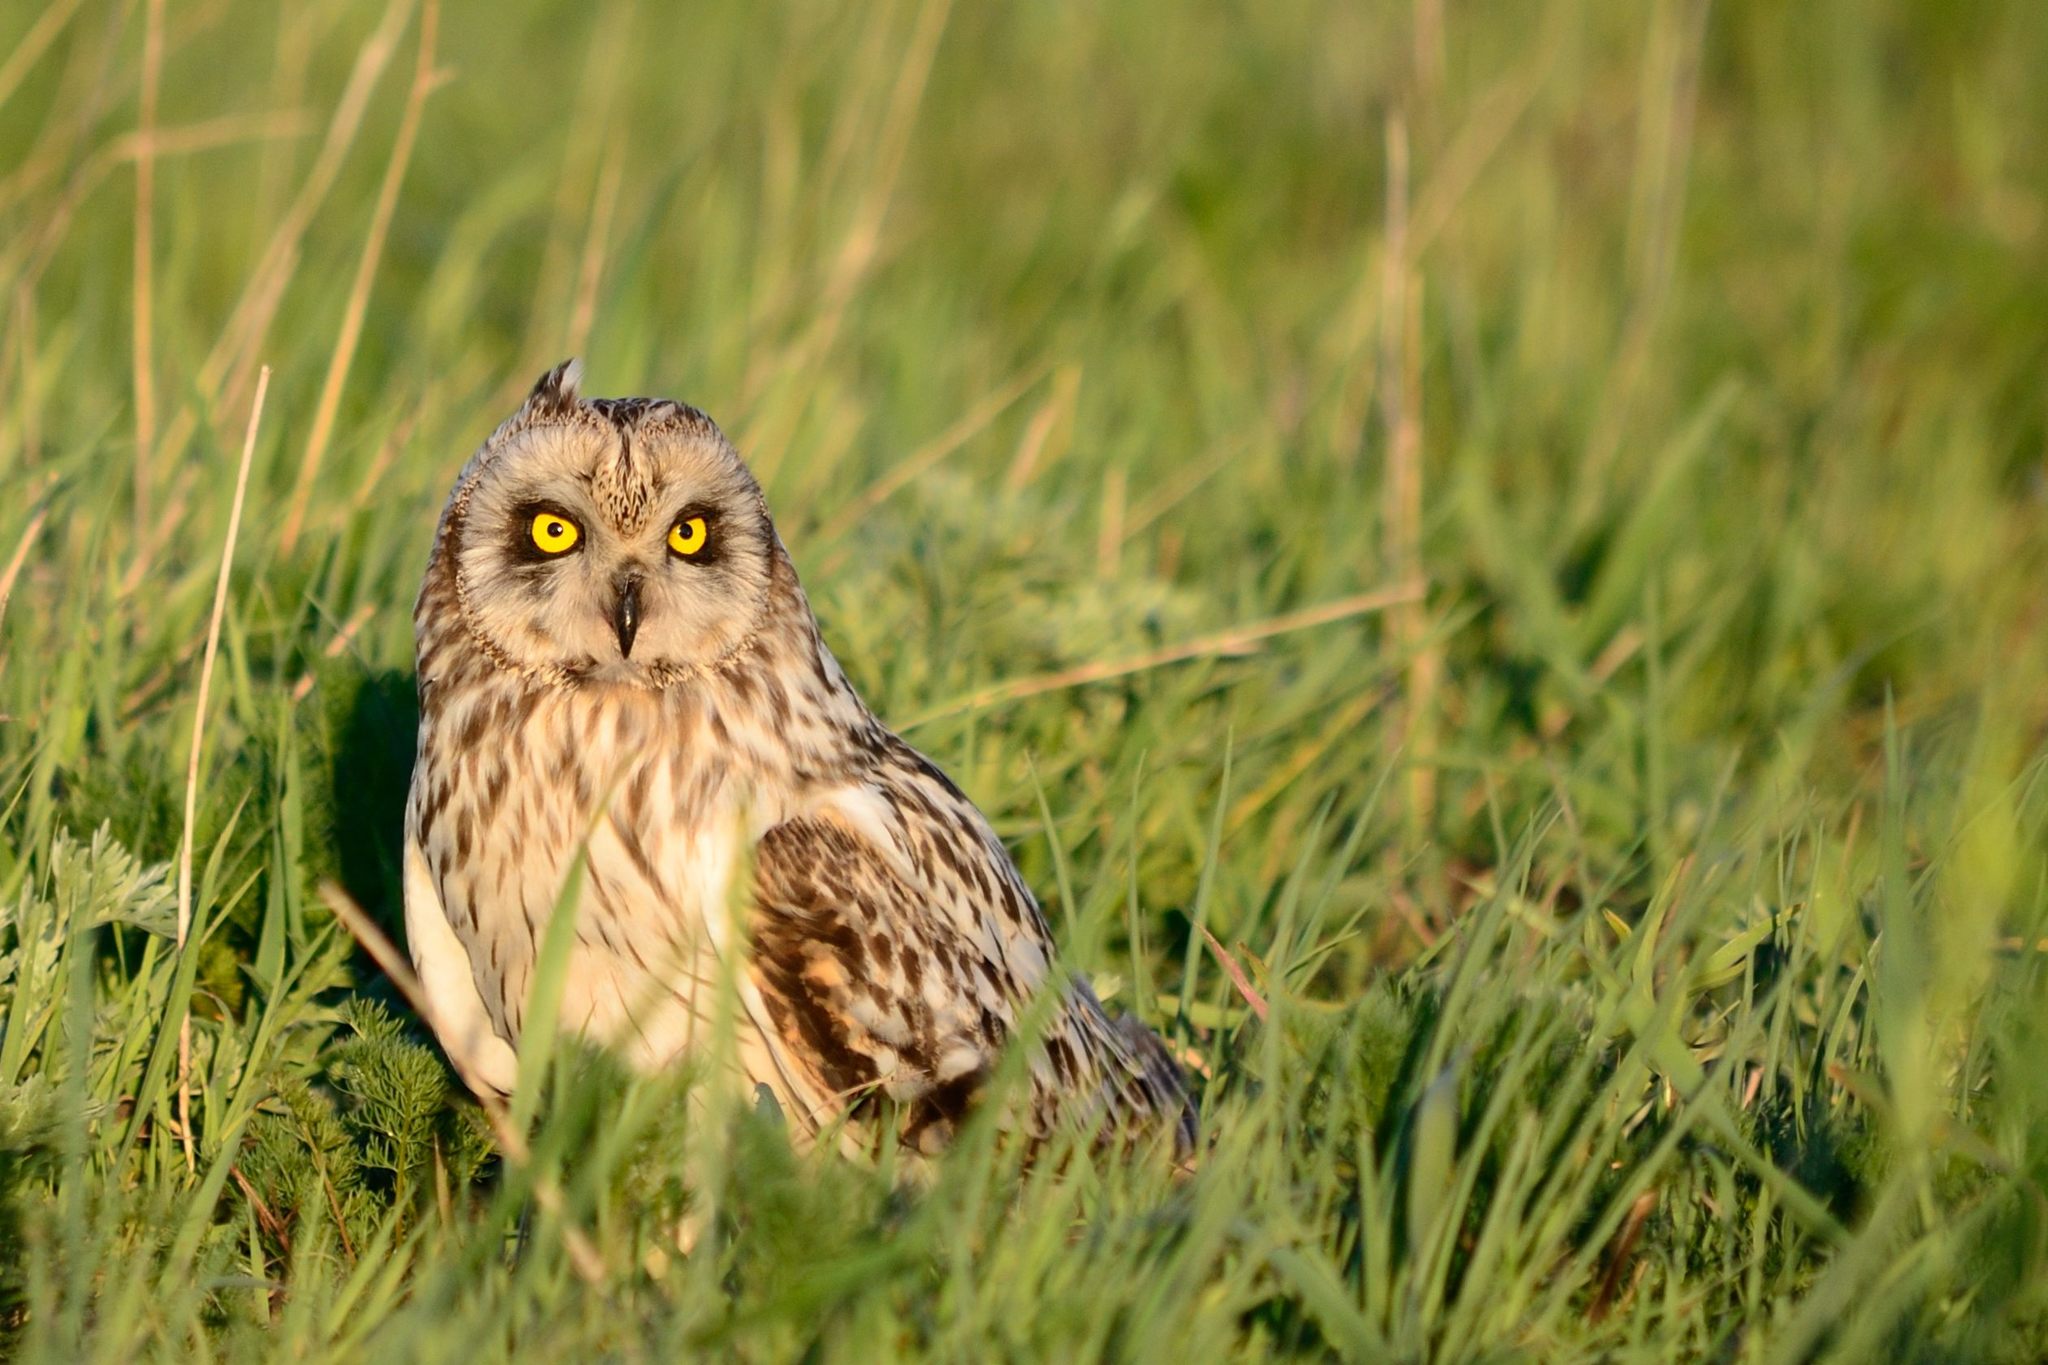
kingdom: Animalia
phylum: Chordata
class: Aves
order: Strigiformes
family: Strigidae
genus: Asio
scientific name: Asio flammeus
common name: Short-eared owl
